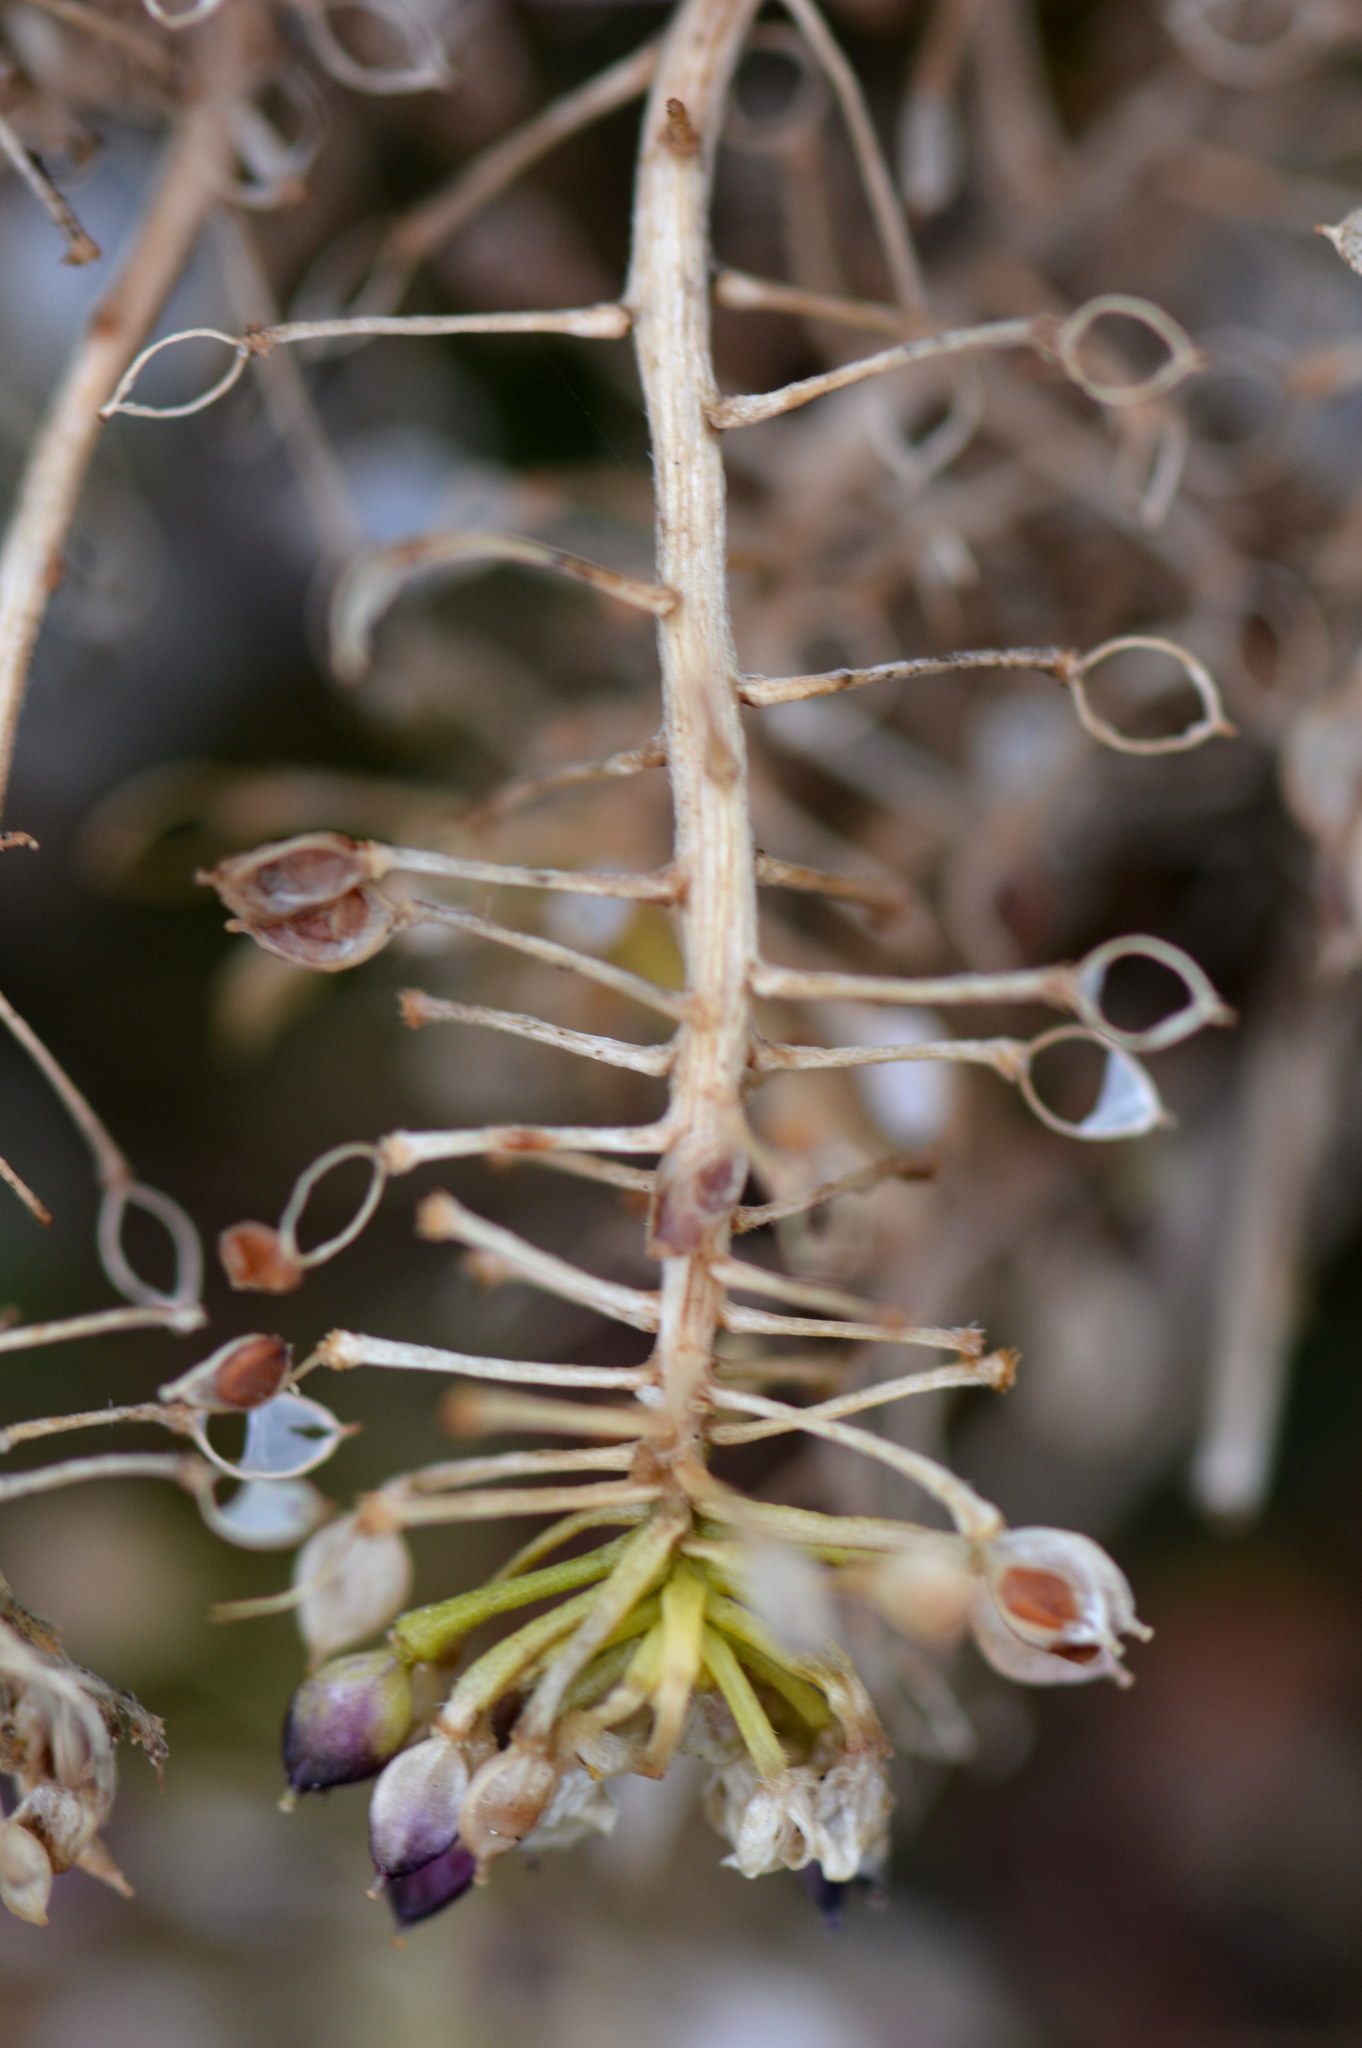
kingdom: Plantae
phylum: Tracheophyta
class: Magnoliopsida
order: Brassicales
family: Brassicaceae
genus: Lobularia
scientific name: Lobularia maritima
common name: Sweet alison
